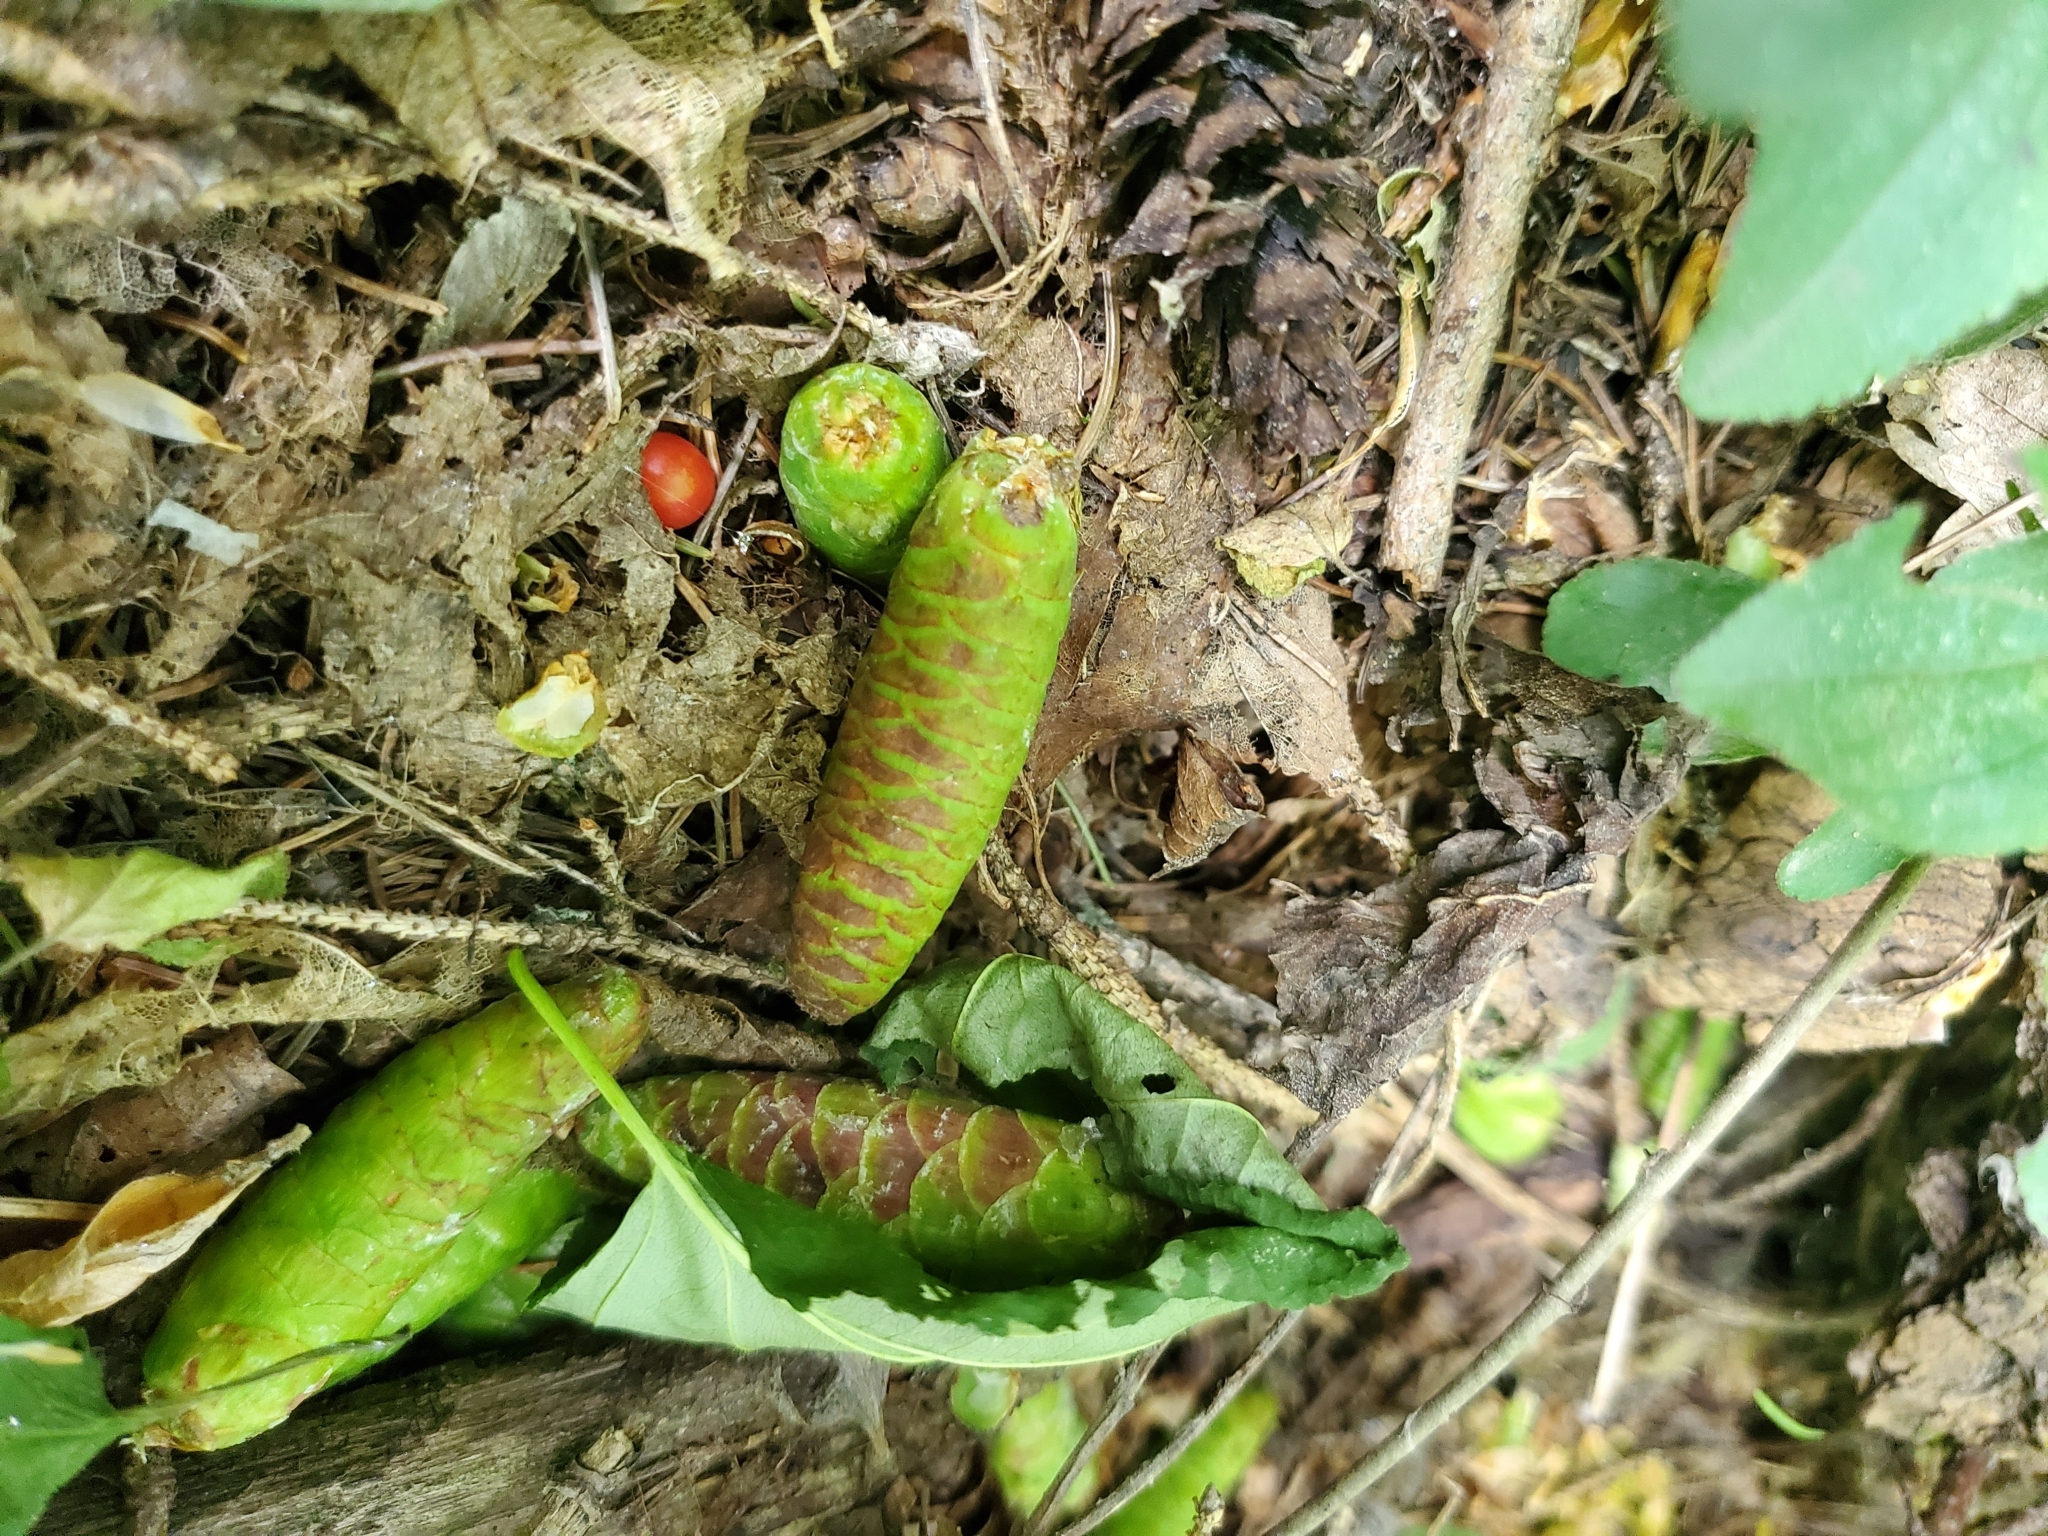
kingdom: Plantae
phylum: Tracheophyta
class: Pinopsida
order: Pinales
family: Pinaceae
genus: Picea
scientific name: Picea glauca
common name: White spruce
